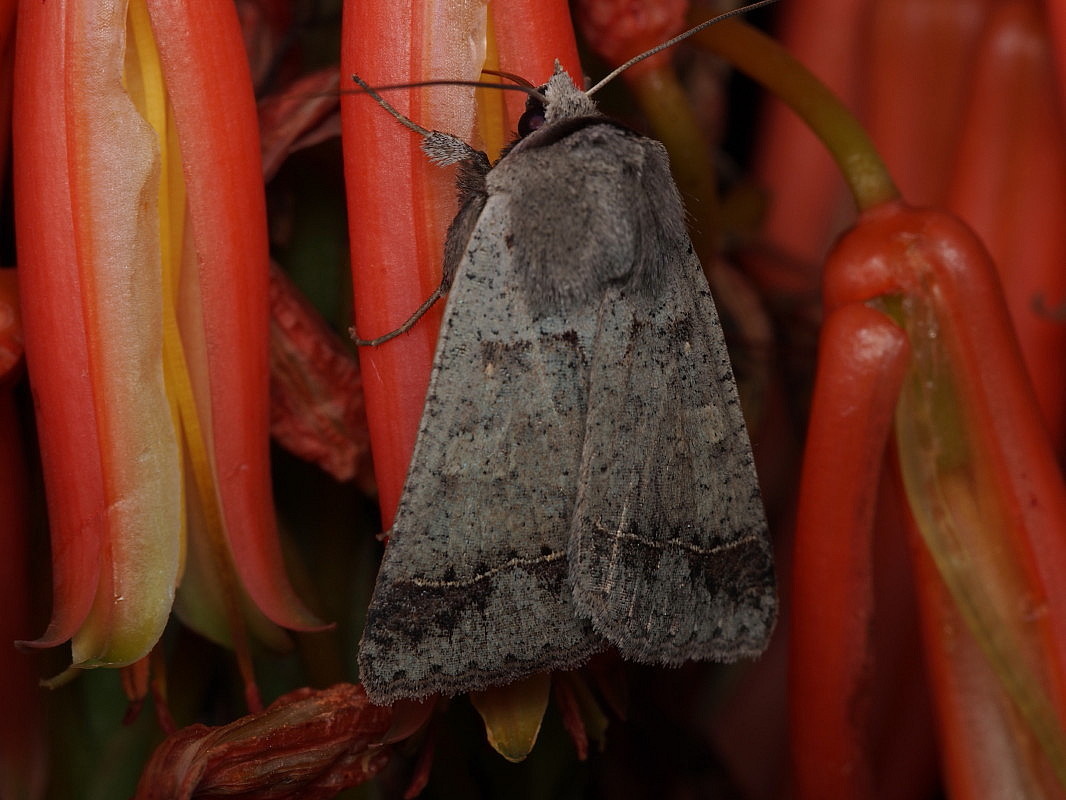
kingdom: Animalia
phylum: Arthropoda
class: Insecta
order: Lepidoptera
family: Erebidae
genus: Pantydia
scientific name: Pantydia sparsa
